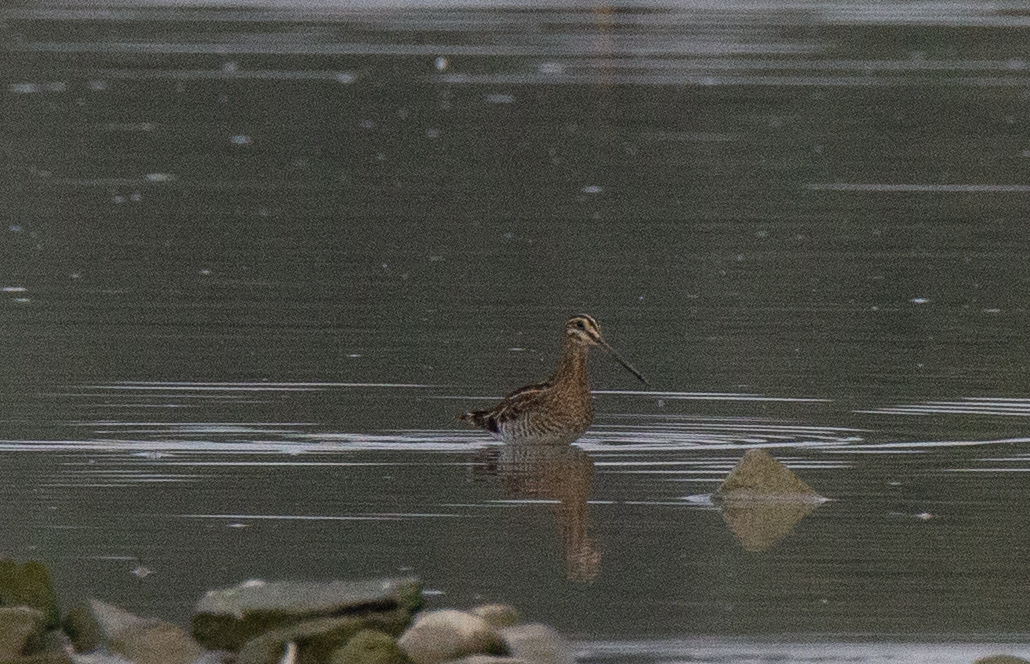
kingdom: Animalia
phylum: Chordata
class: Aves
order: Charadriiformes
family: Scolopacidae
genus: Gallinago
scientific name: Gallinago gallinago
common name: Common snipe
